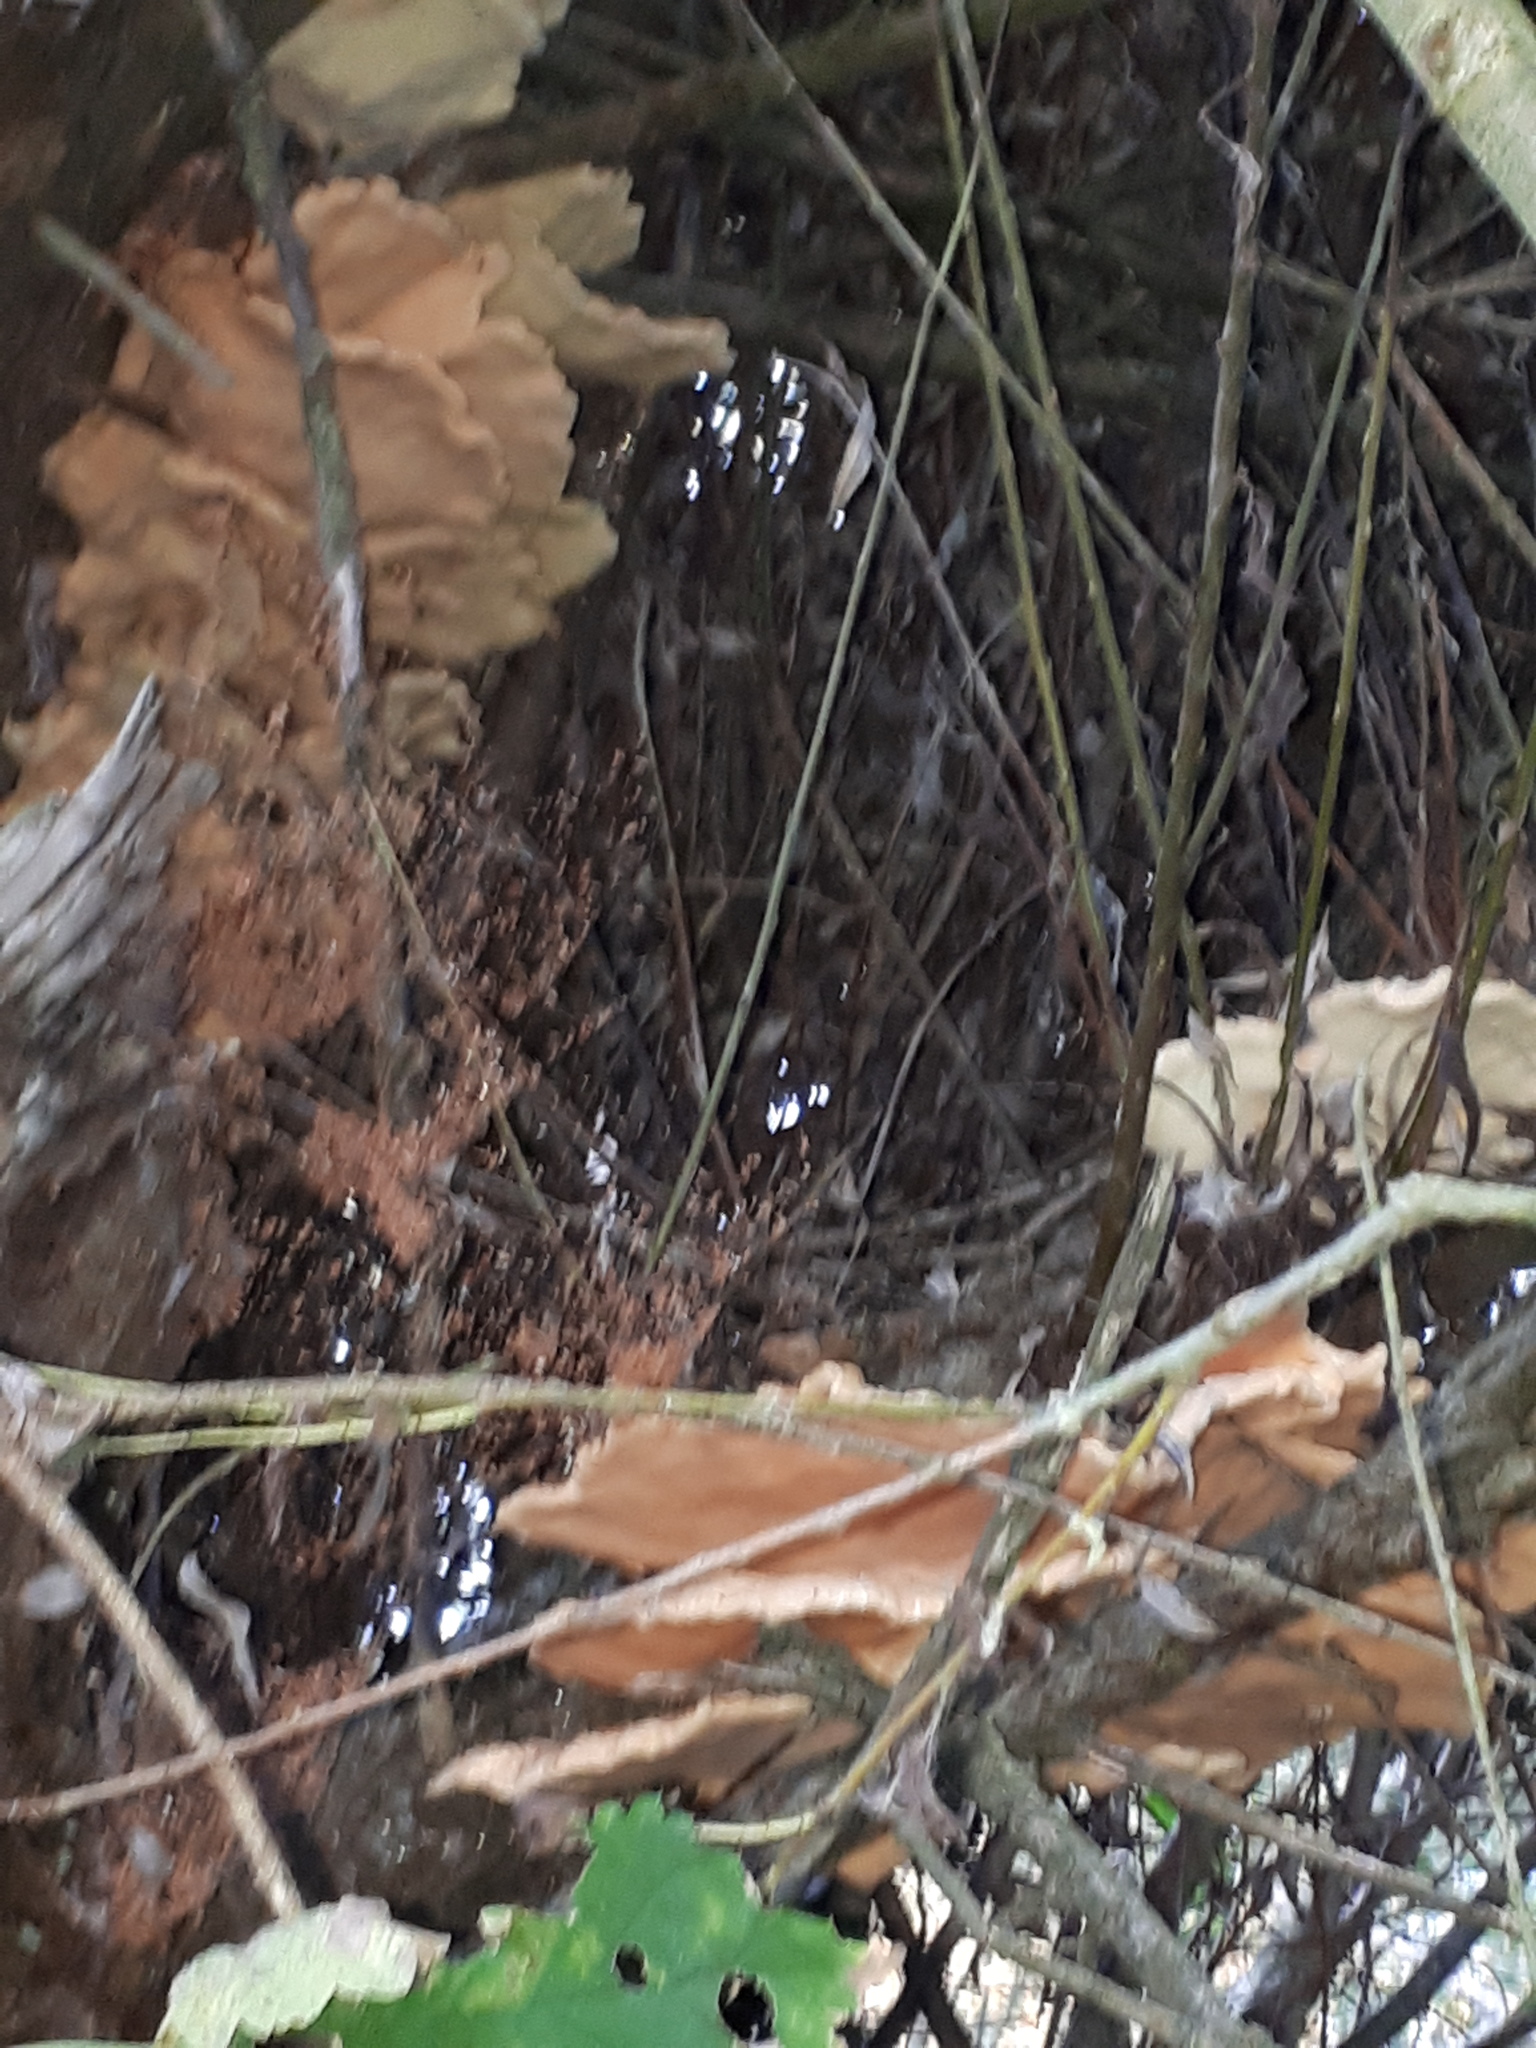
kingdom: Fungi
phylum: Basidiomycota
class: Agaricomycetes
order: Polyporales
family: Laetiporaceae
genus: Laetiporus
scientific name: Laetiporus sulphureus
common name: Chicken of the woods
